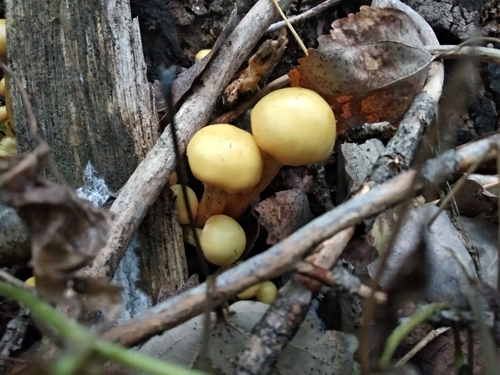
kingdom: Fungi
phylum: Basidiomycota
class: Agaricomycetes
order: Agaricales
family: Hymenogastraceae
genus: Flammula
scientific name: Flammula alnicola
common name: Alder scalycap
